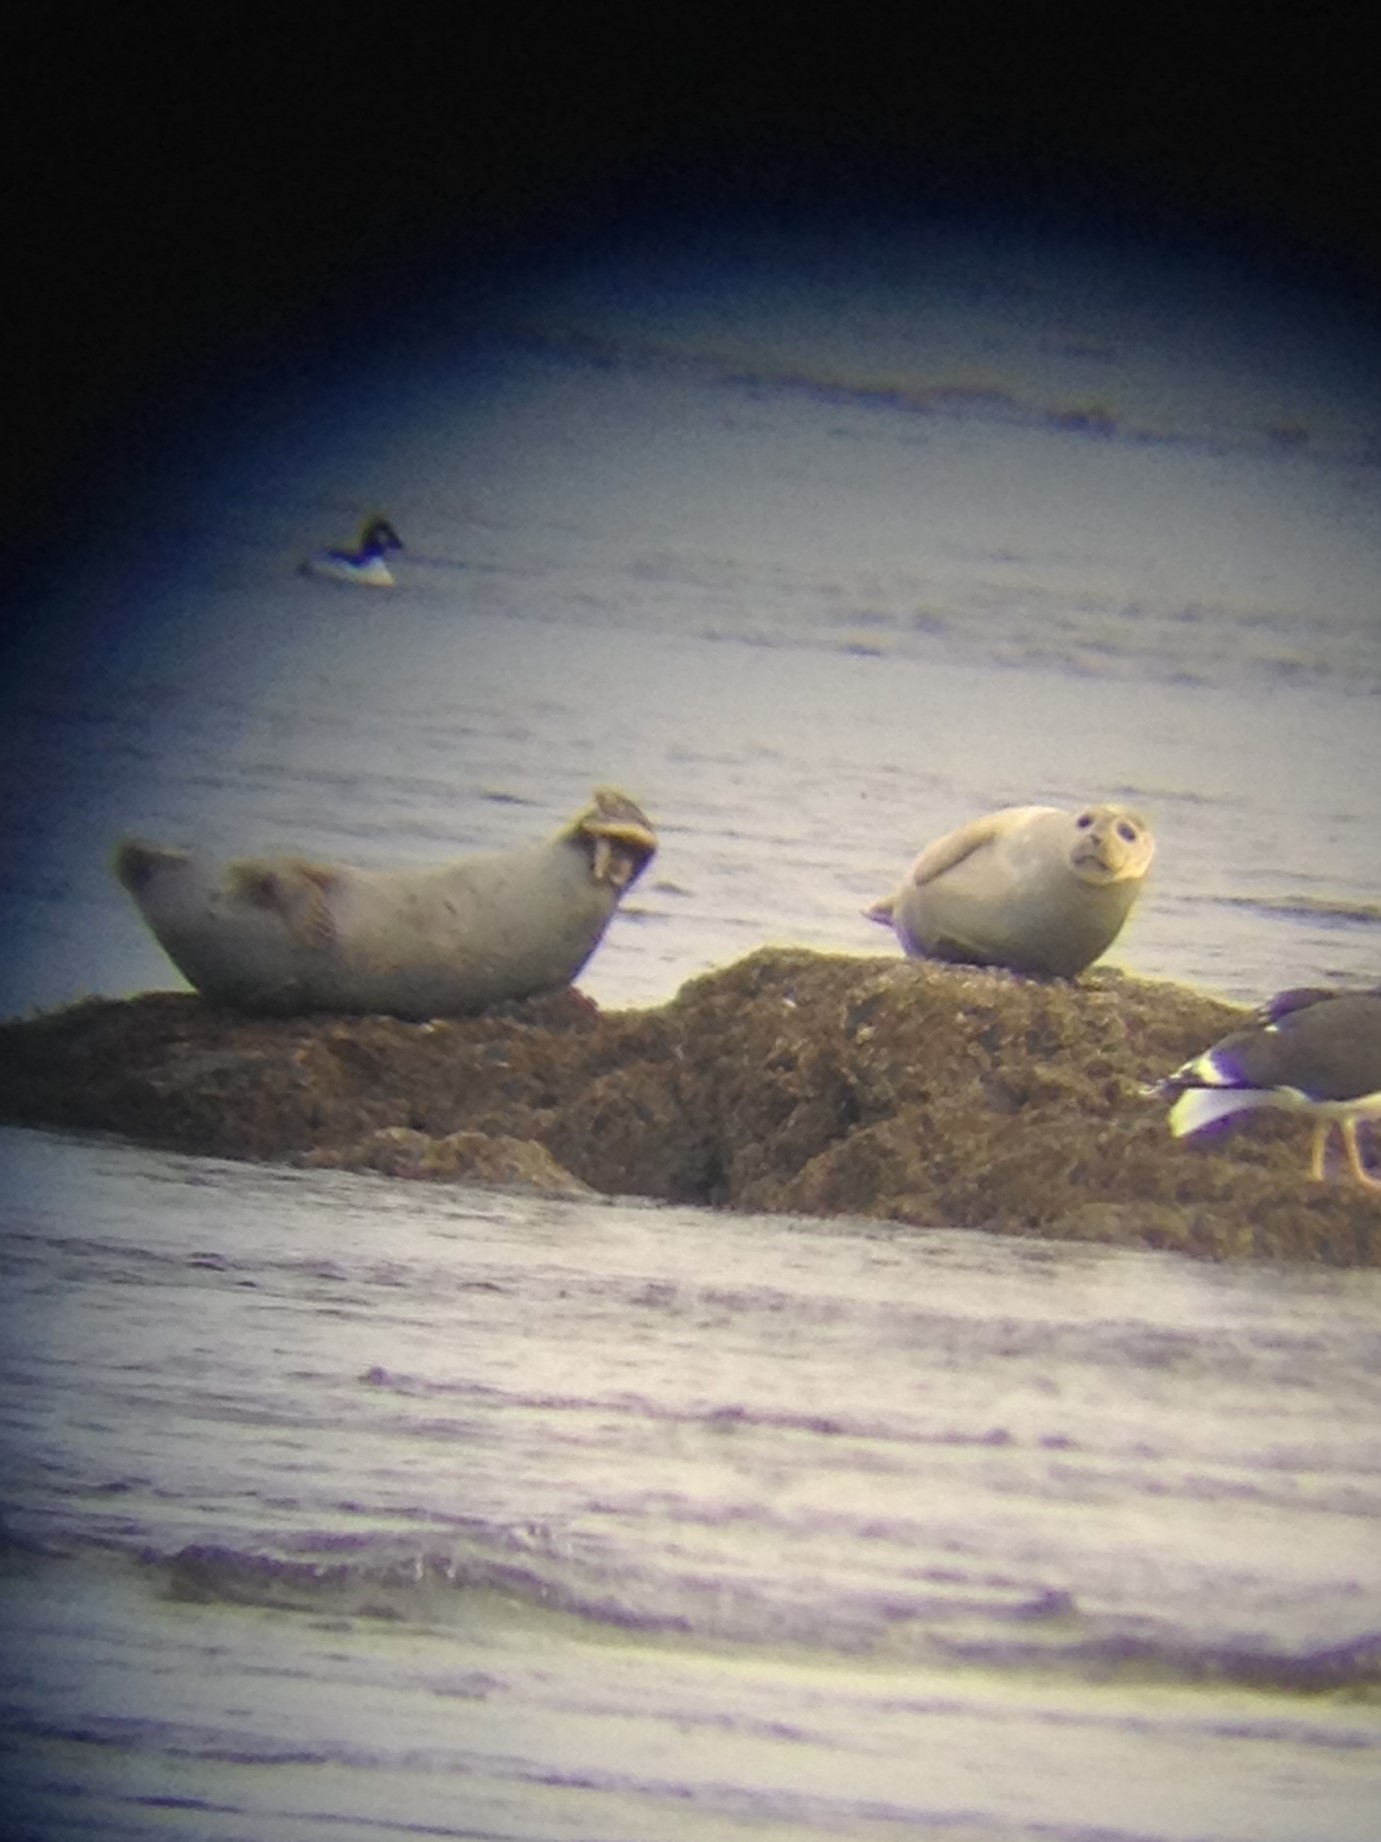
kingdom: Animalia
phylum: Chordata
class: Mammalia
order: Carnivora
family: Phocidae
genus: Phoca
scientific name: Phoca vitulina
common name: Harbor seal
